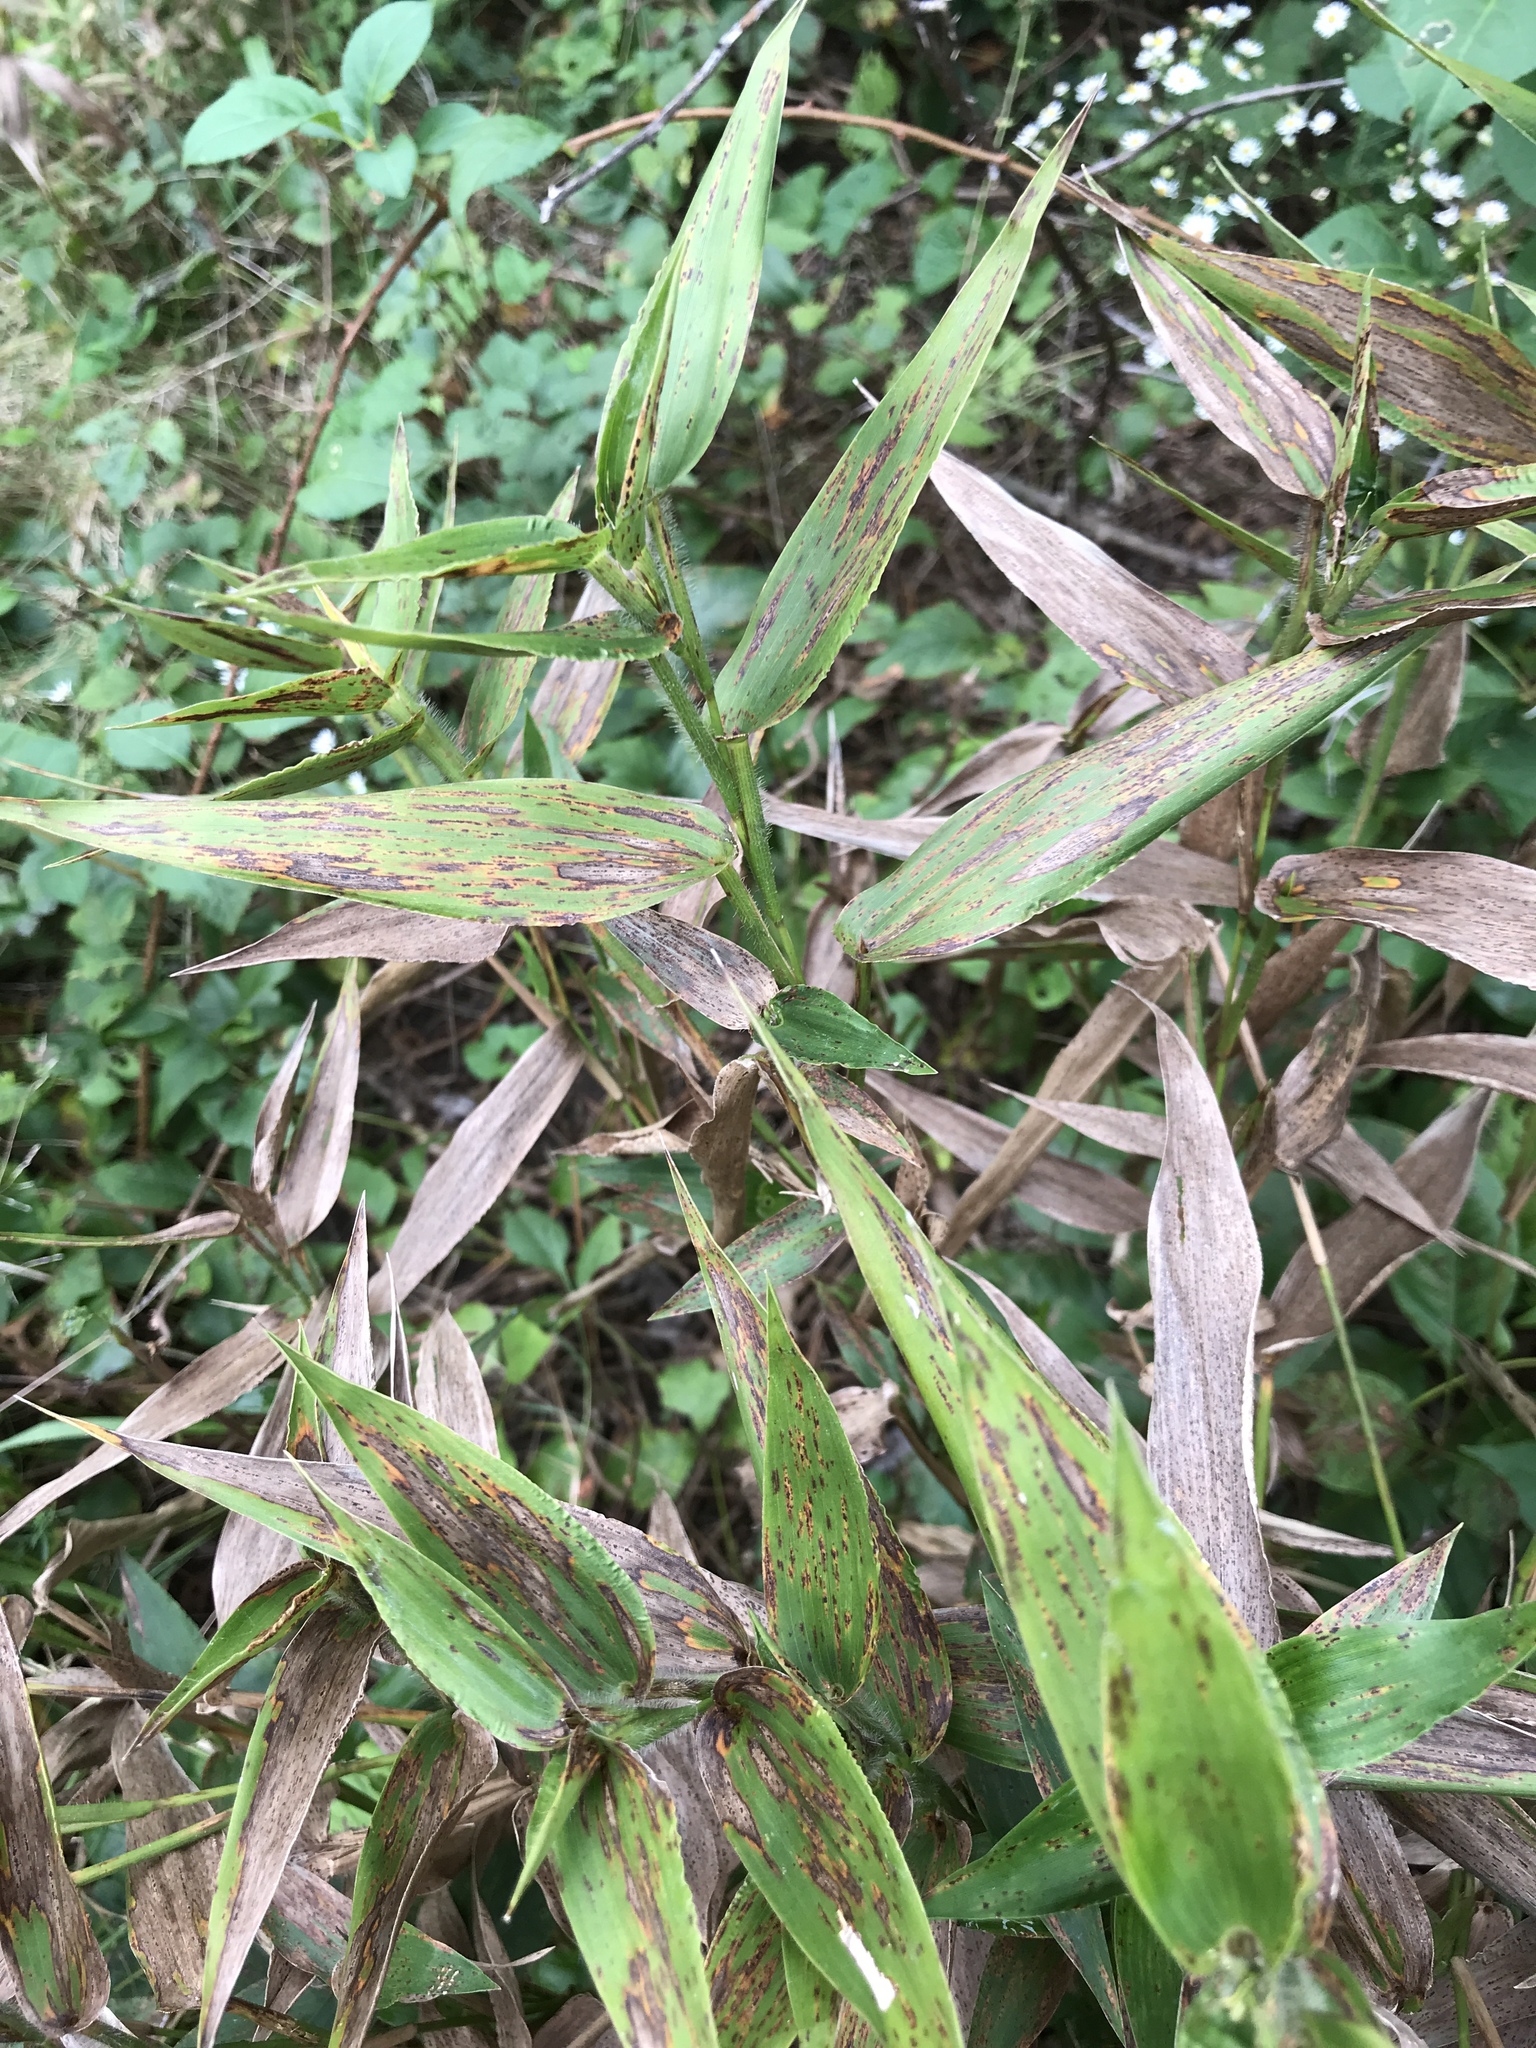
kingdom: Plantae
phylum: Tracheophyta
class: Liliopsida
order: Poales
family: Poaceae
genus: Dichanthelium
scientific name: Dichanthelium clandestinum
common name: Deer-tongue grass
